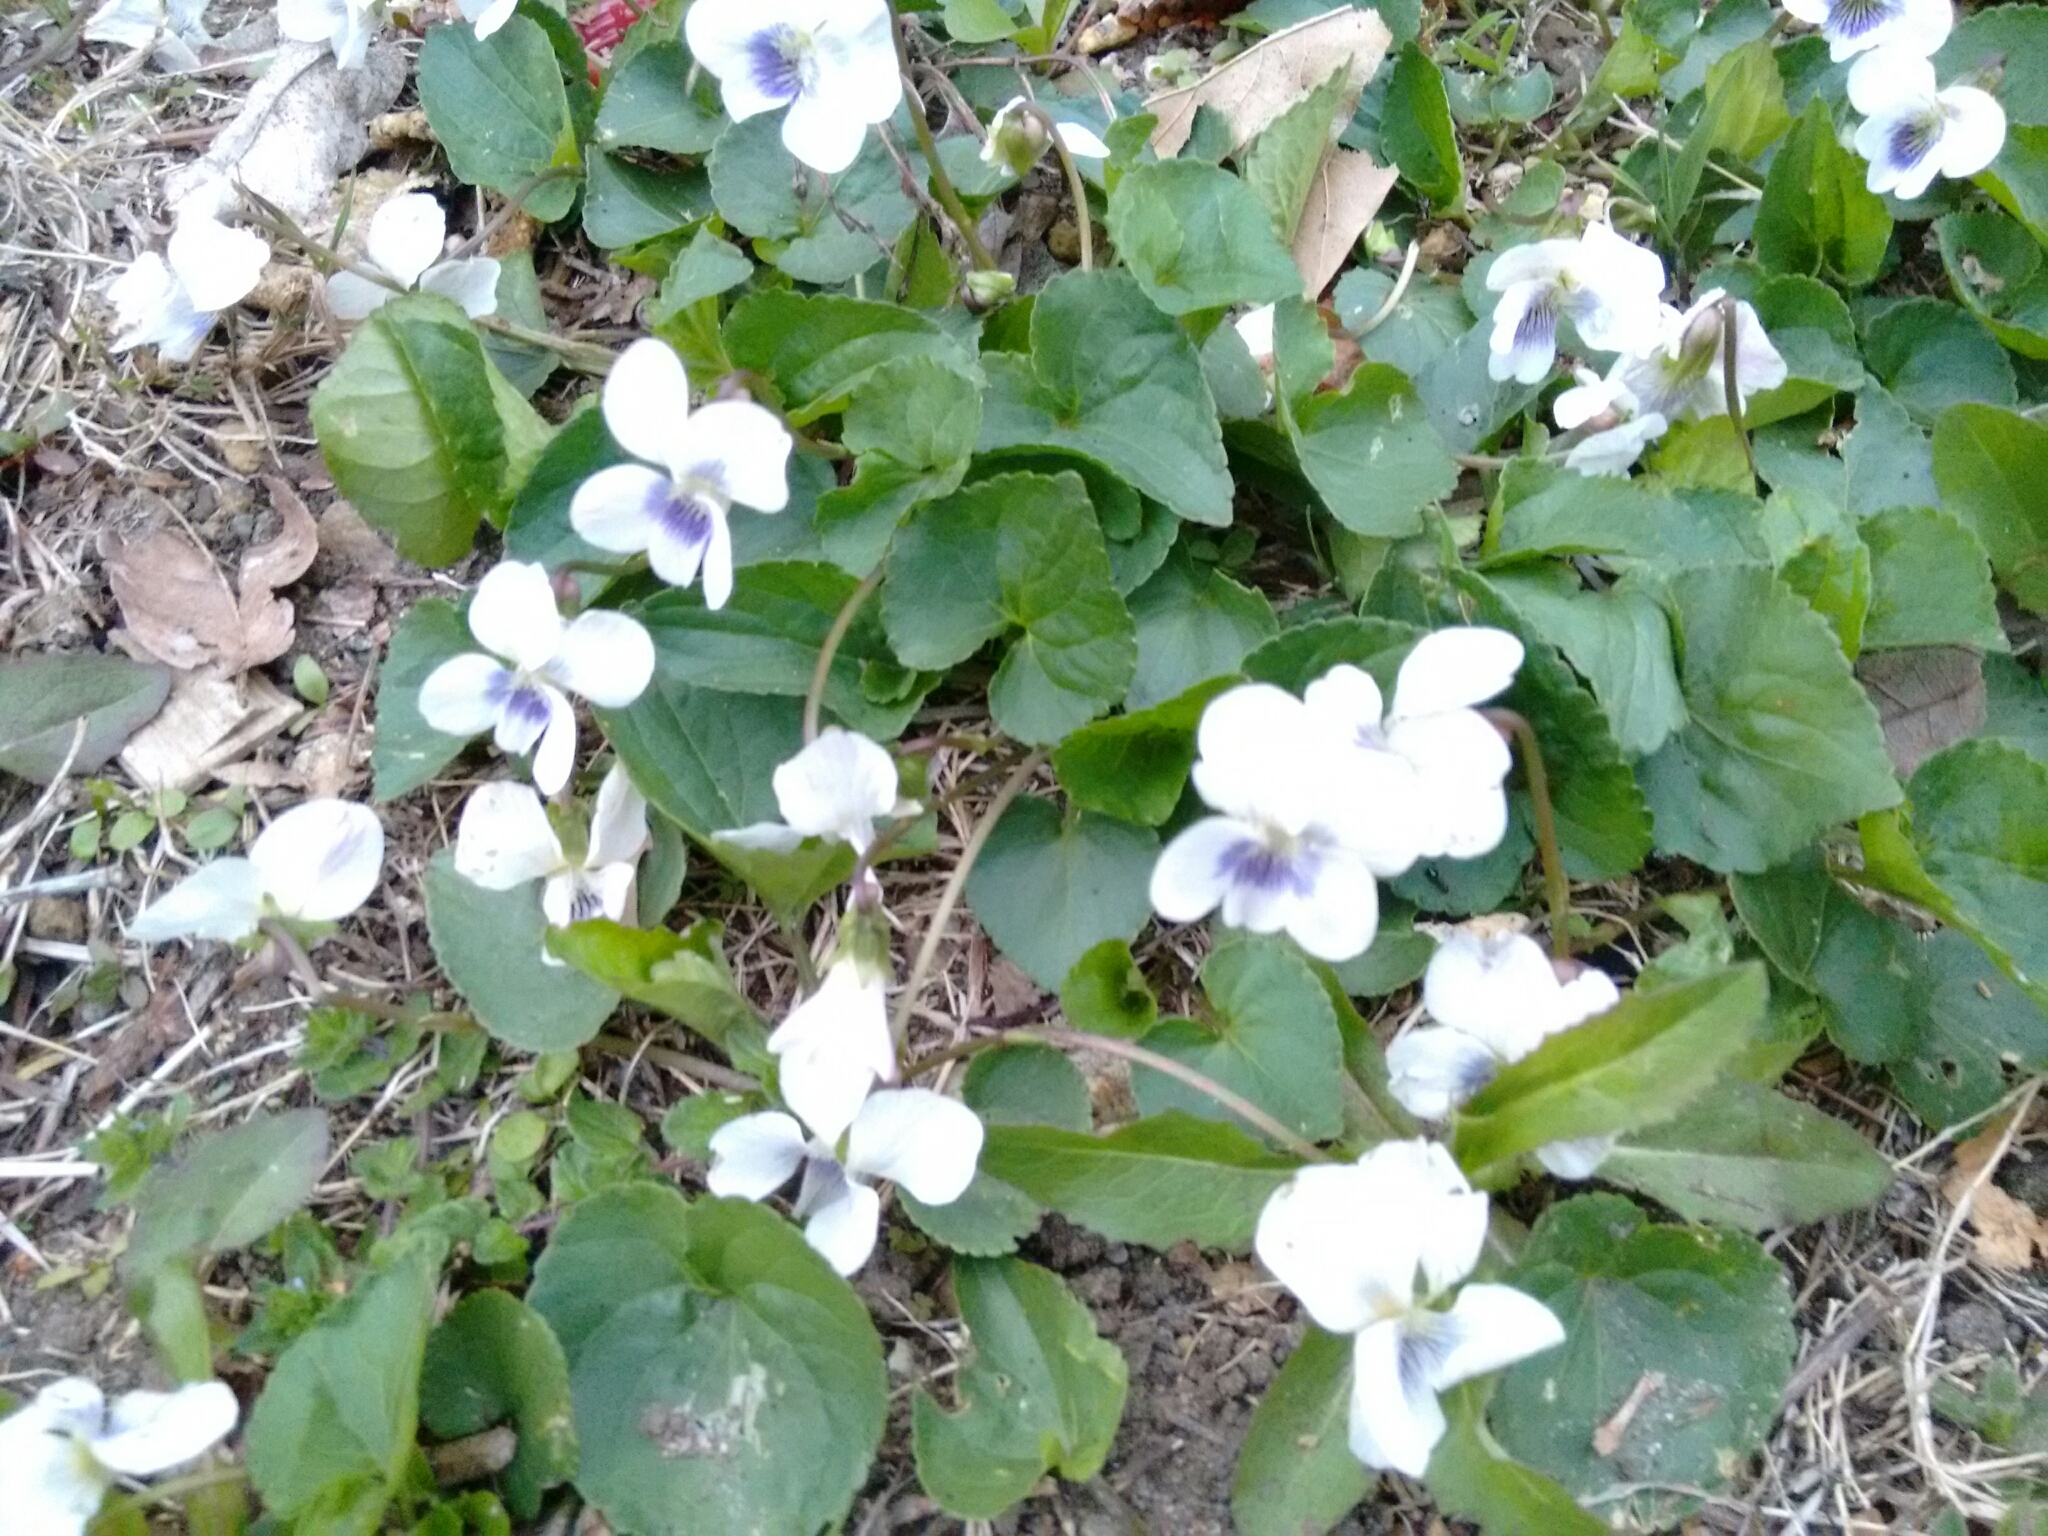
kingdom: Plantae
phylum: Tracheophyta
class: Magnoliopsida
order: Malpighiales
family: Violaceae
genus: Viola
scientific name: Viola sororia
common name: Dooryard violet
